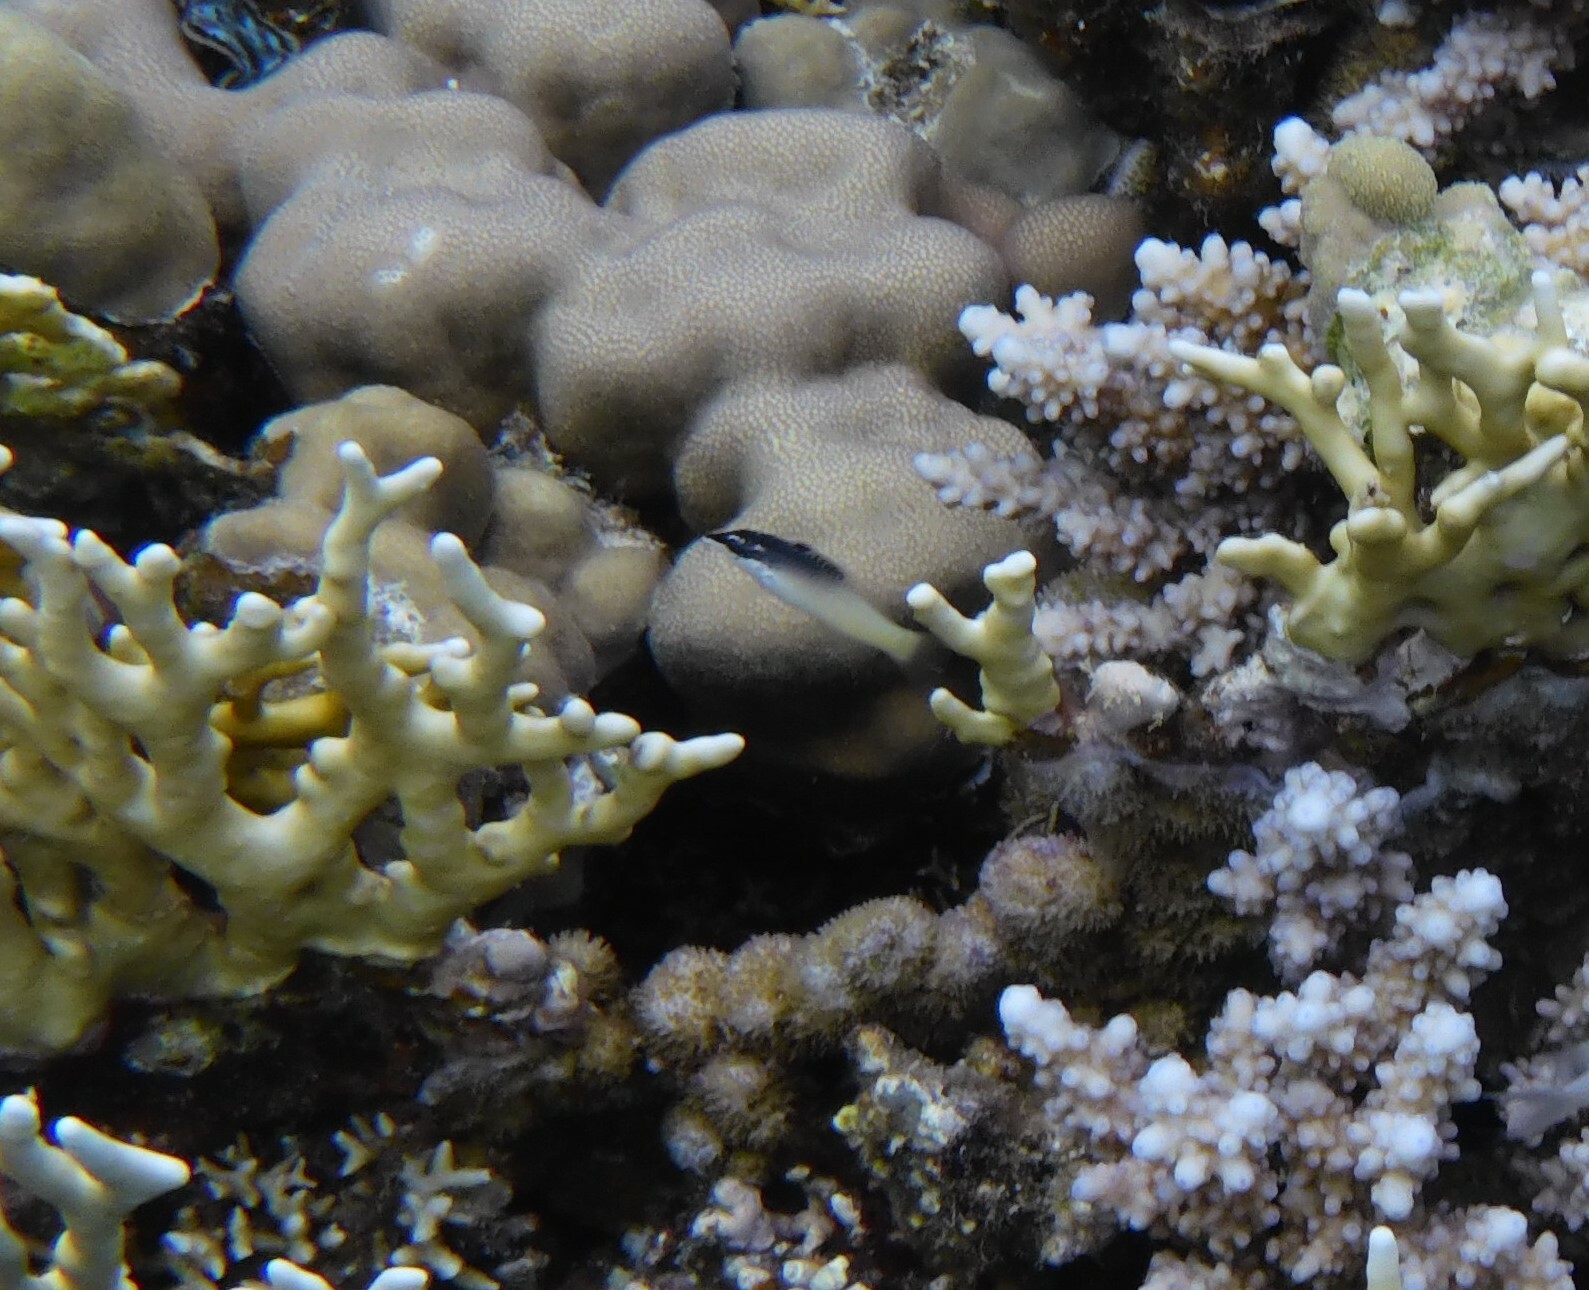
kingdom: Animalia
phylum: Chordata
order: Perciformes
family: Labridae
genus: Gomphosus
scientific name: Gomphosus klunzingeri
